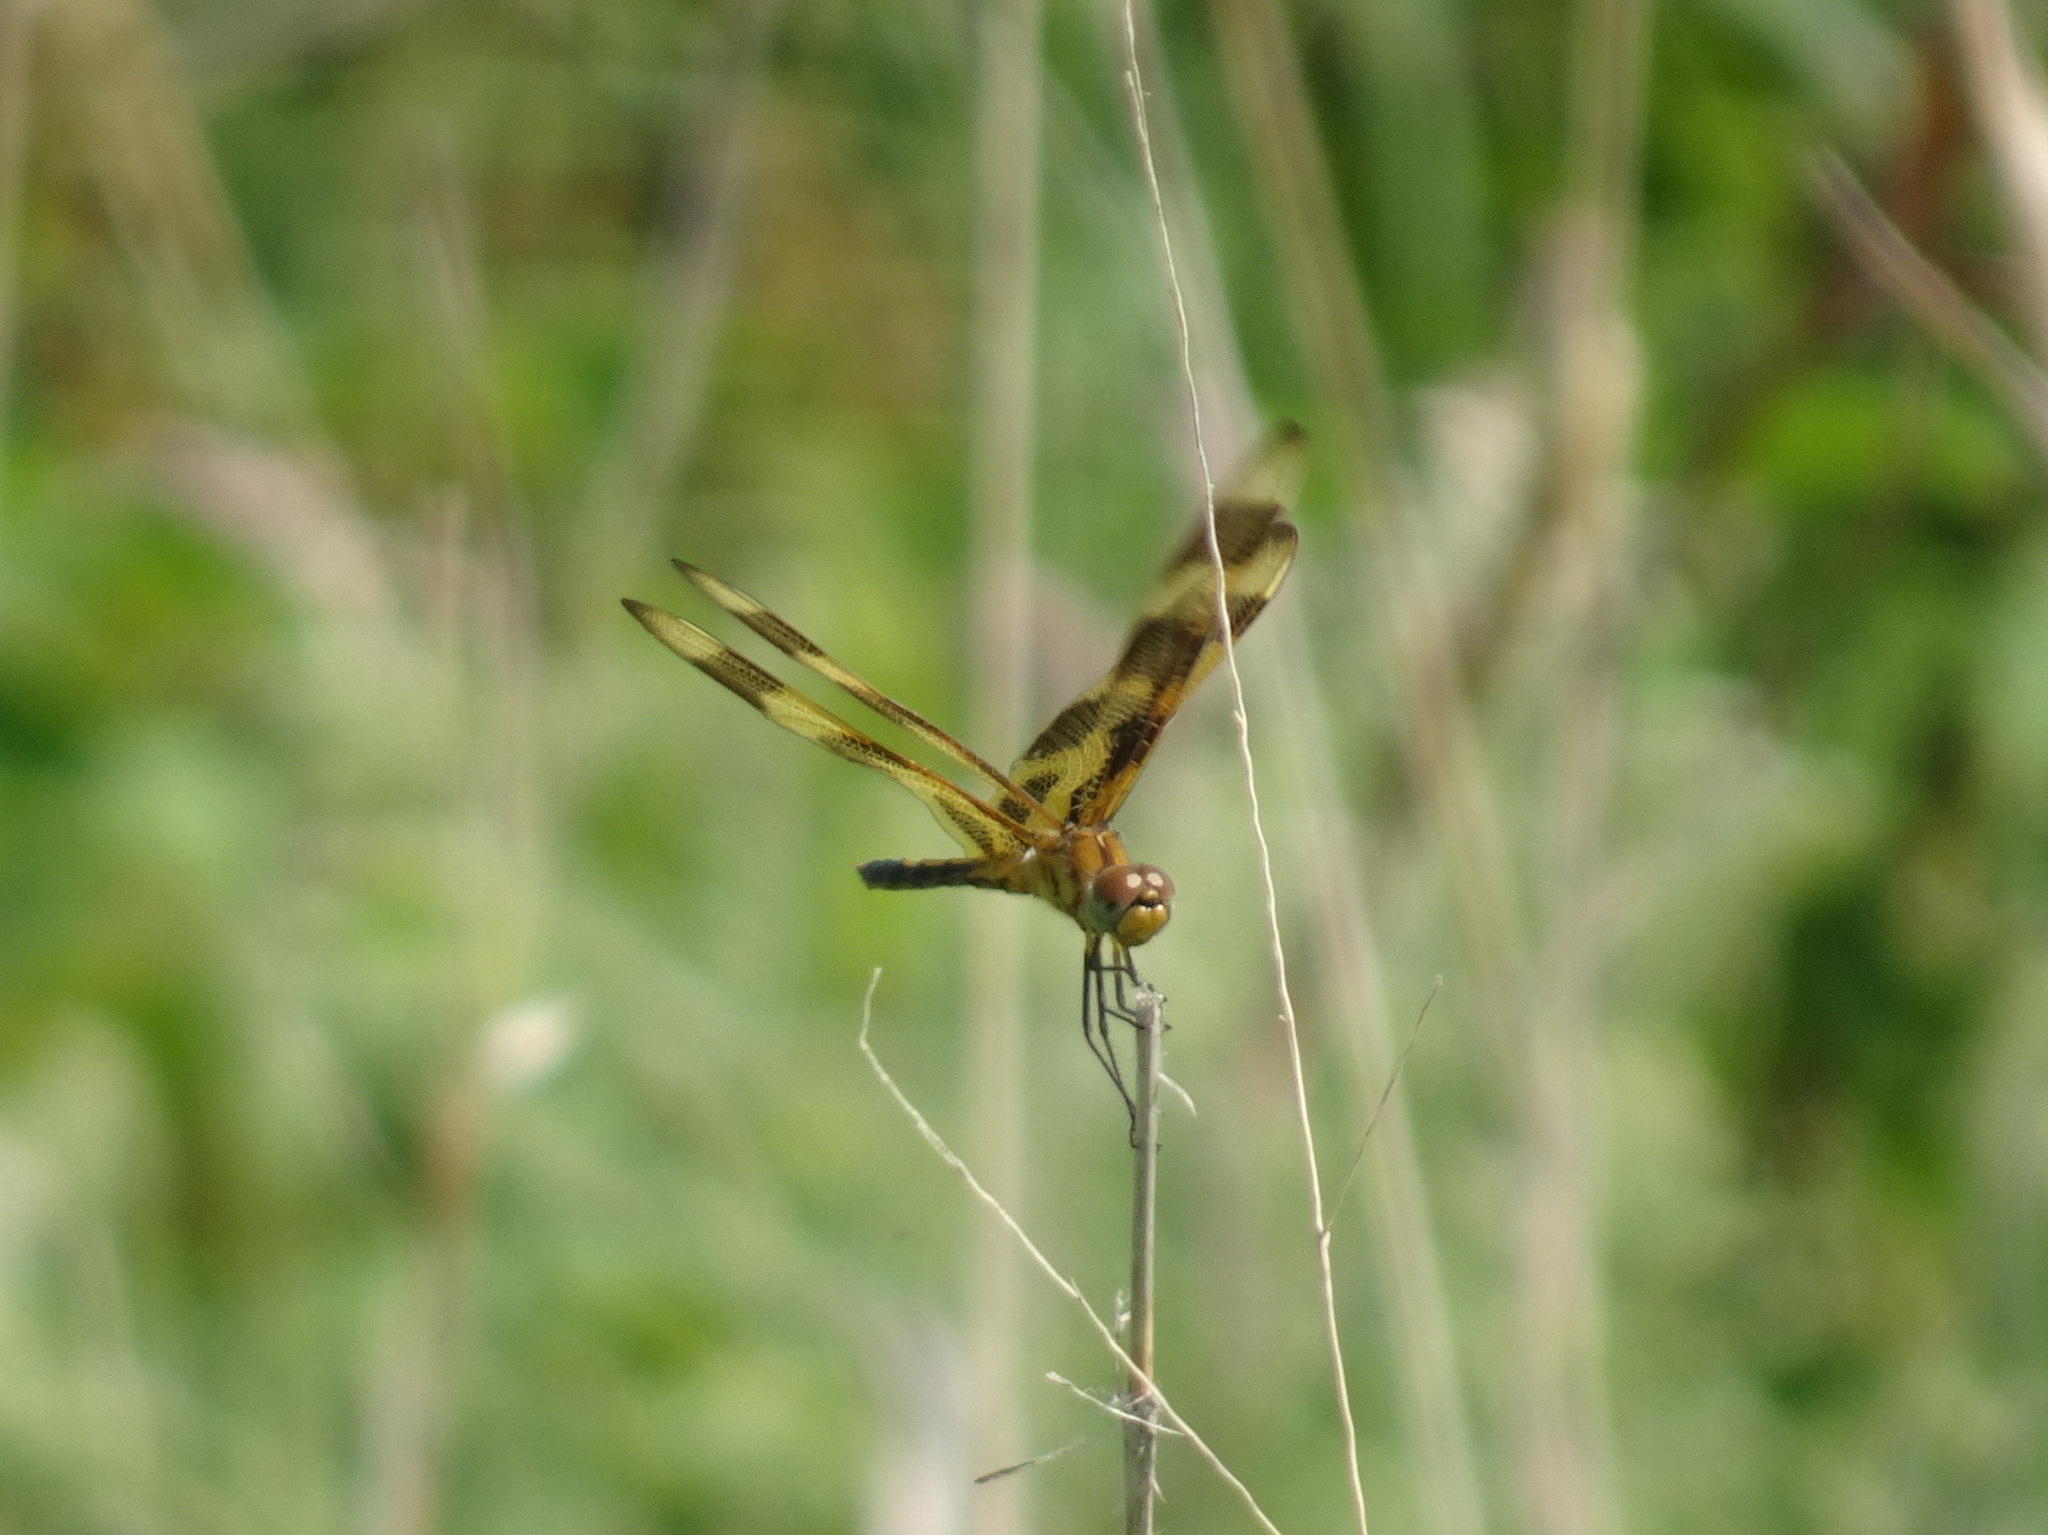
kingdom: Animalia
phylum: Arthropoda
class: Insecta
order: Odonata
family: Libellulidae
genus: Celithemis
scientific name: Celithemis eponina
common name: Halloween pennant
